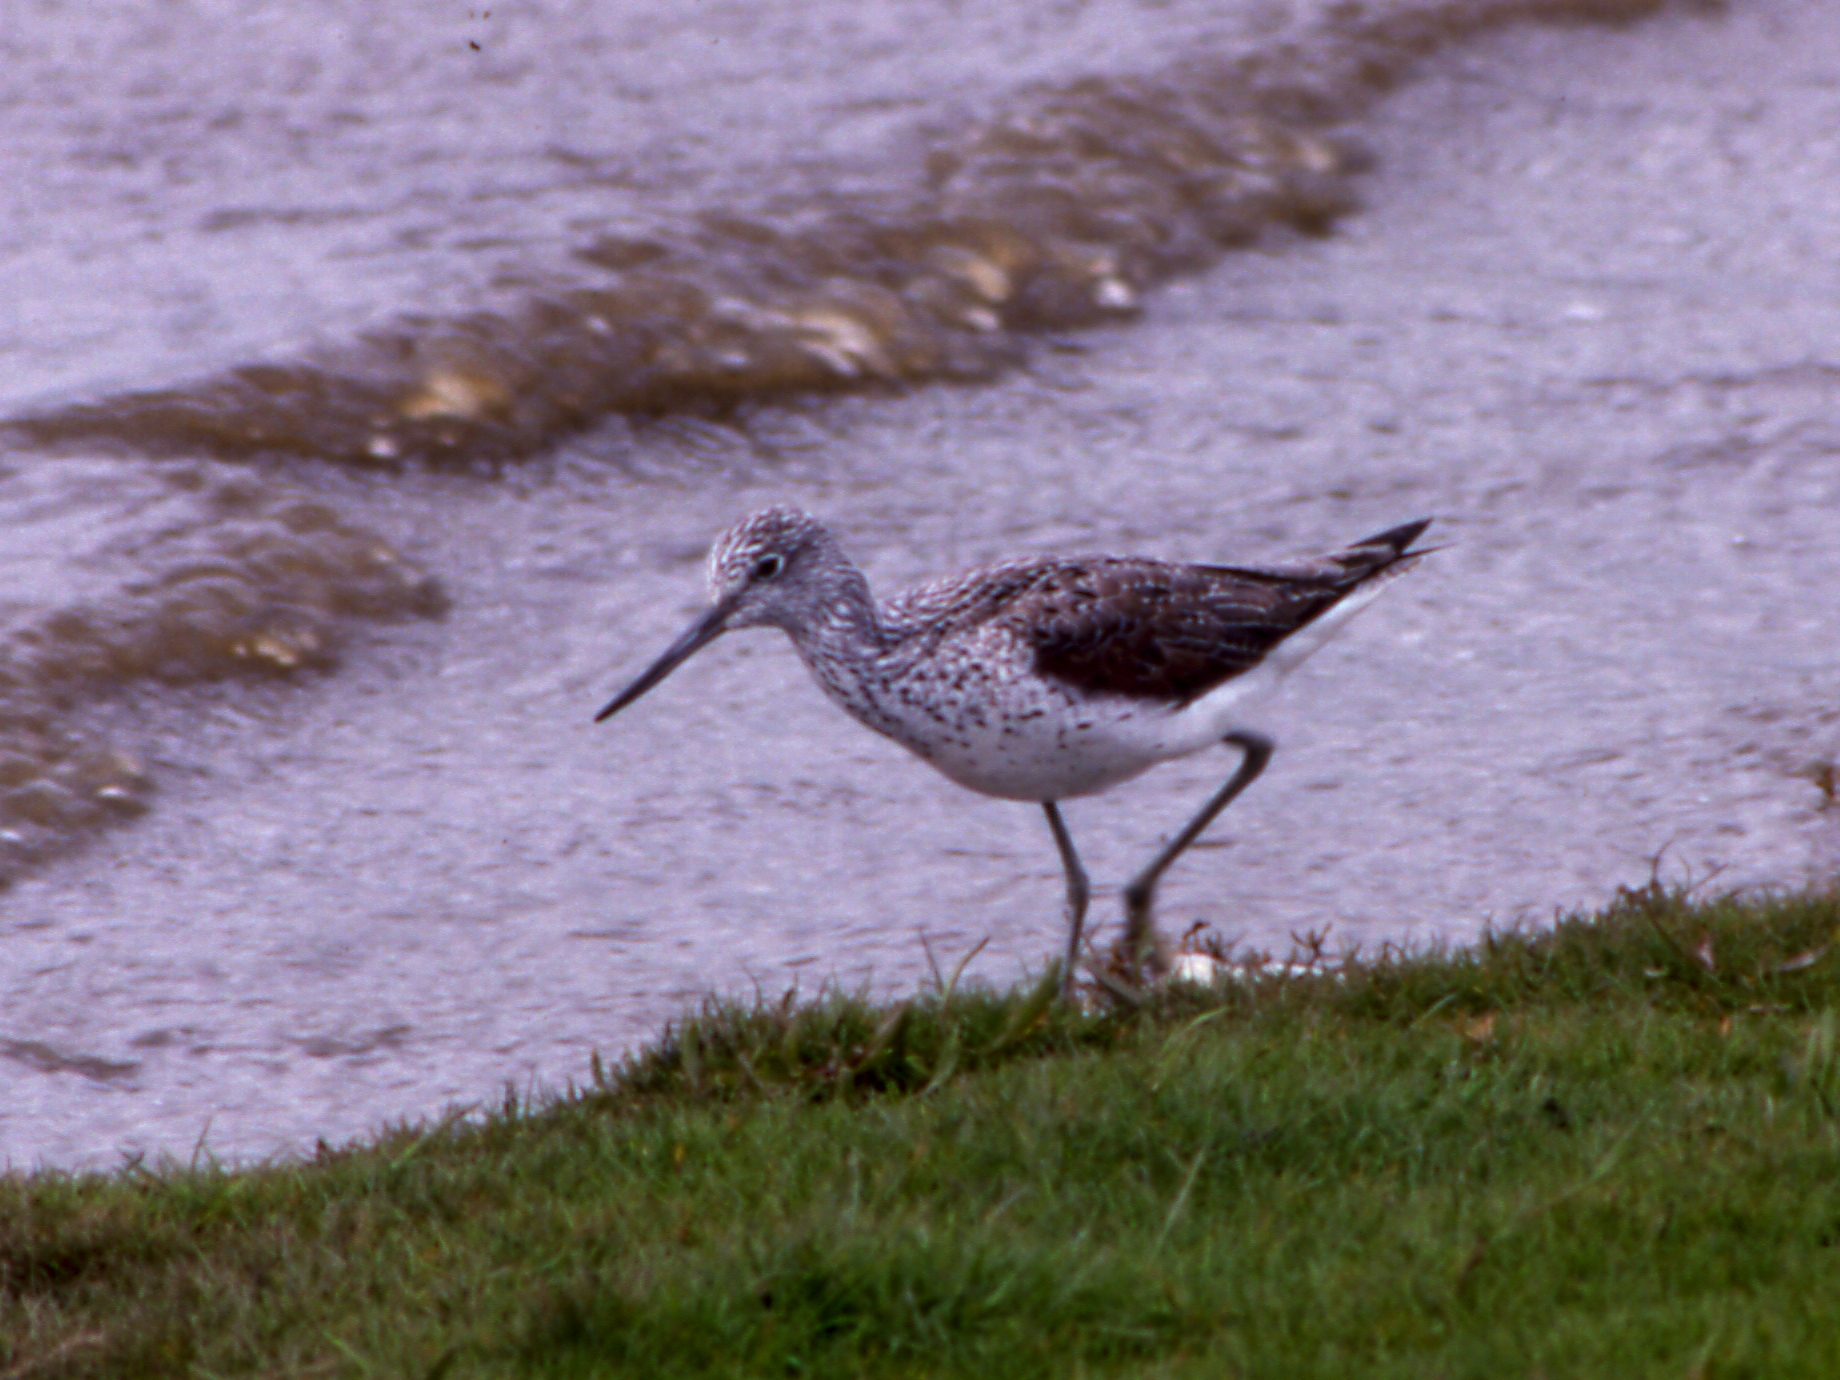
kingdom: Animalia
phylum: Chordata
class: Aves
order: Charadriiformes
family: Scolopacidae
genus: Tringa
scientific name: Tringa nebularia
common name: Common greenshank
